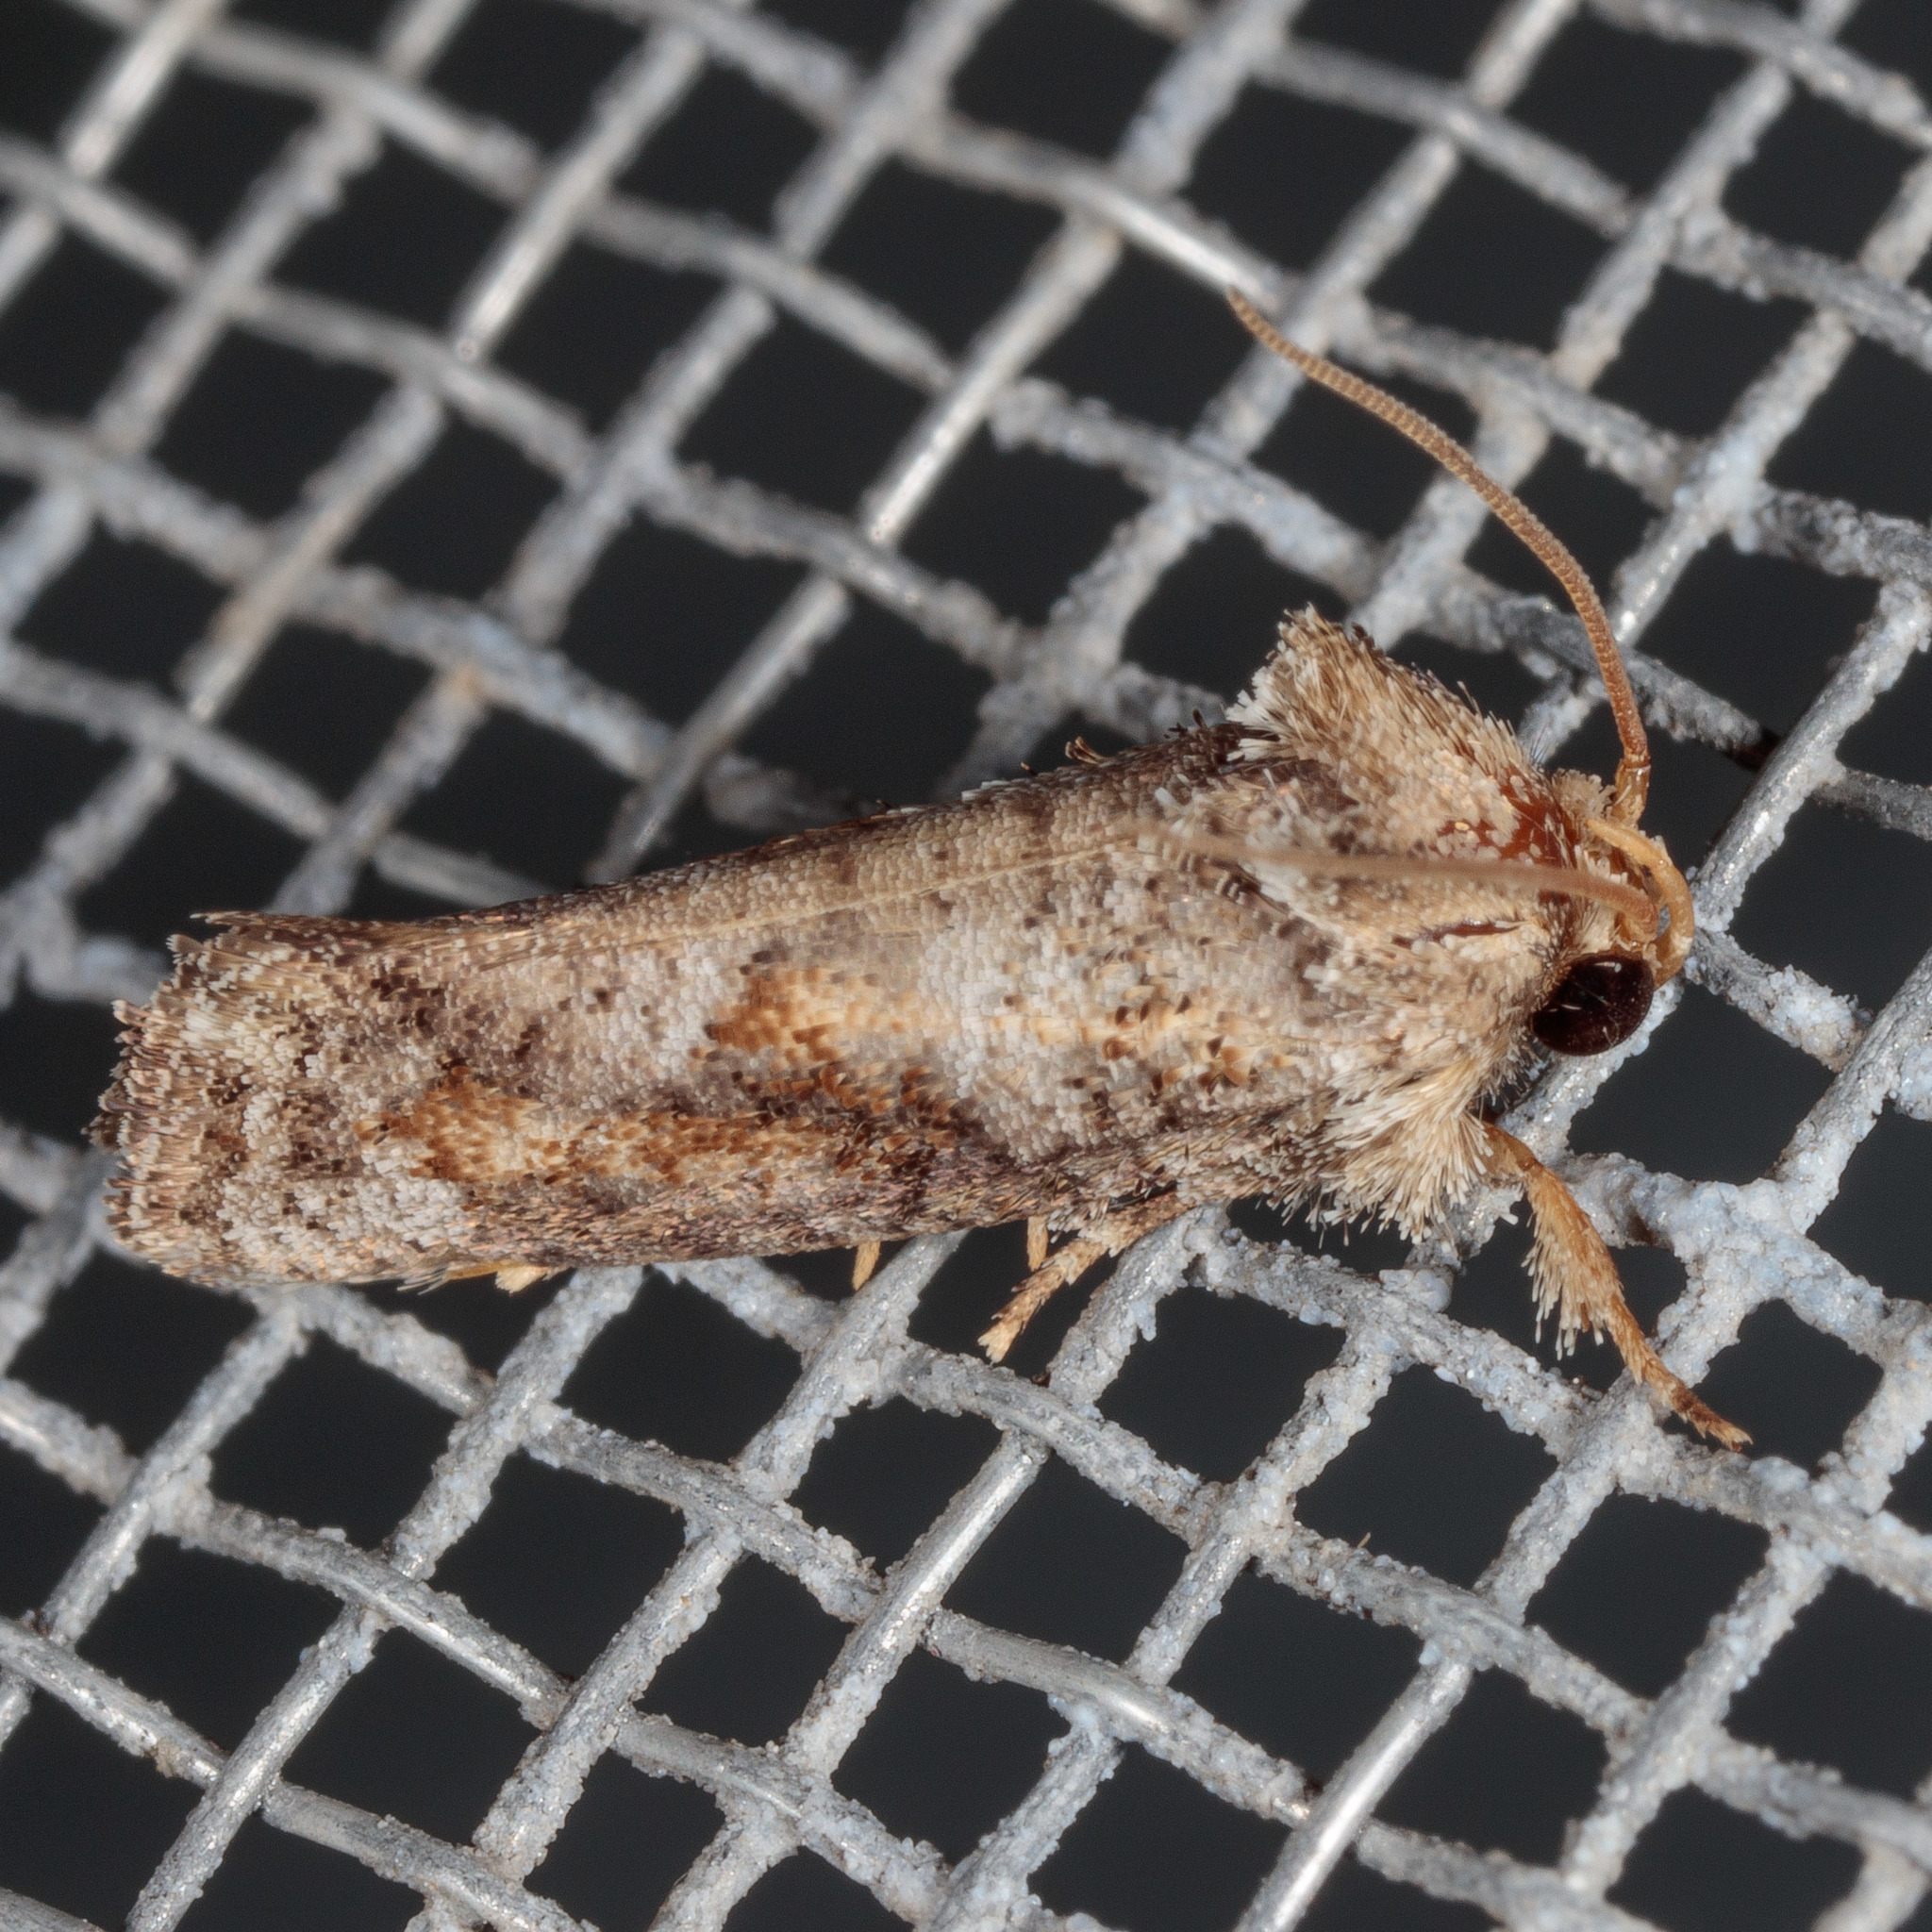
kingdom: Animalia
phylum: Arthropoda
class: Insecta
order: Lepidoptera
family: Tineidae
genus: Acrolophus
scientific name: Acrolophus piger
